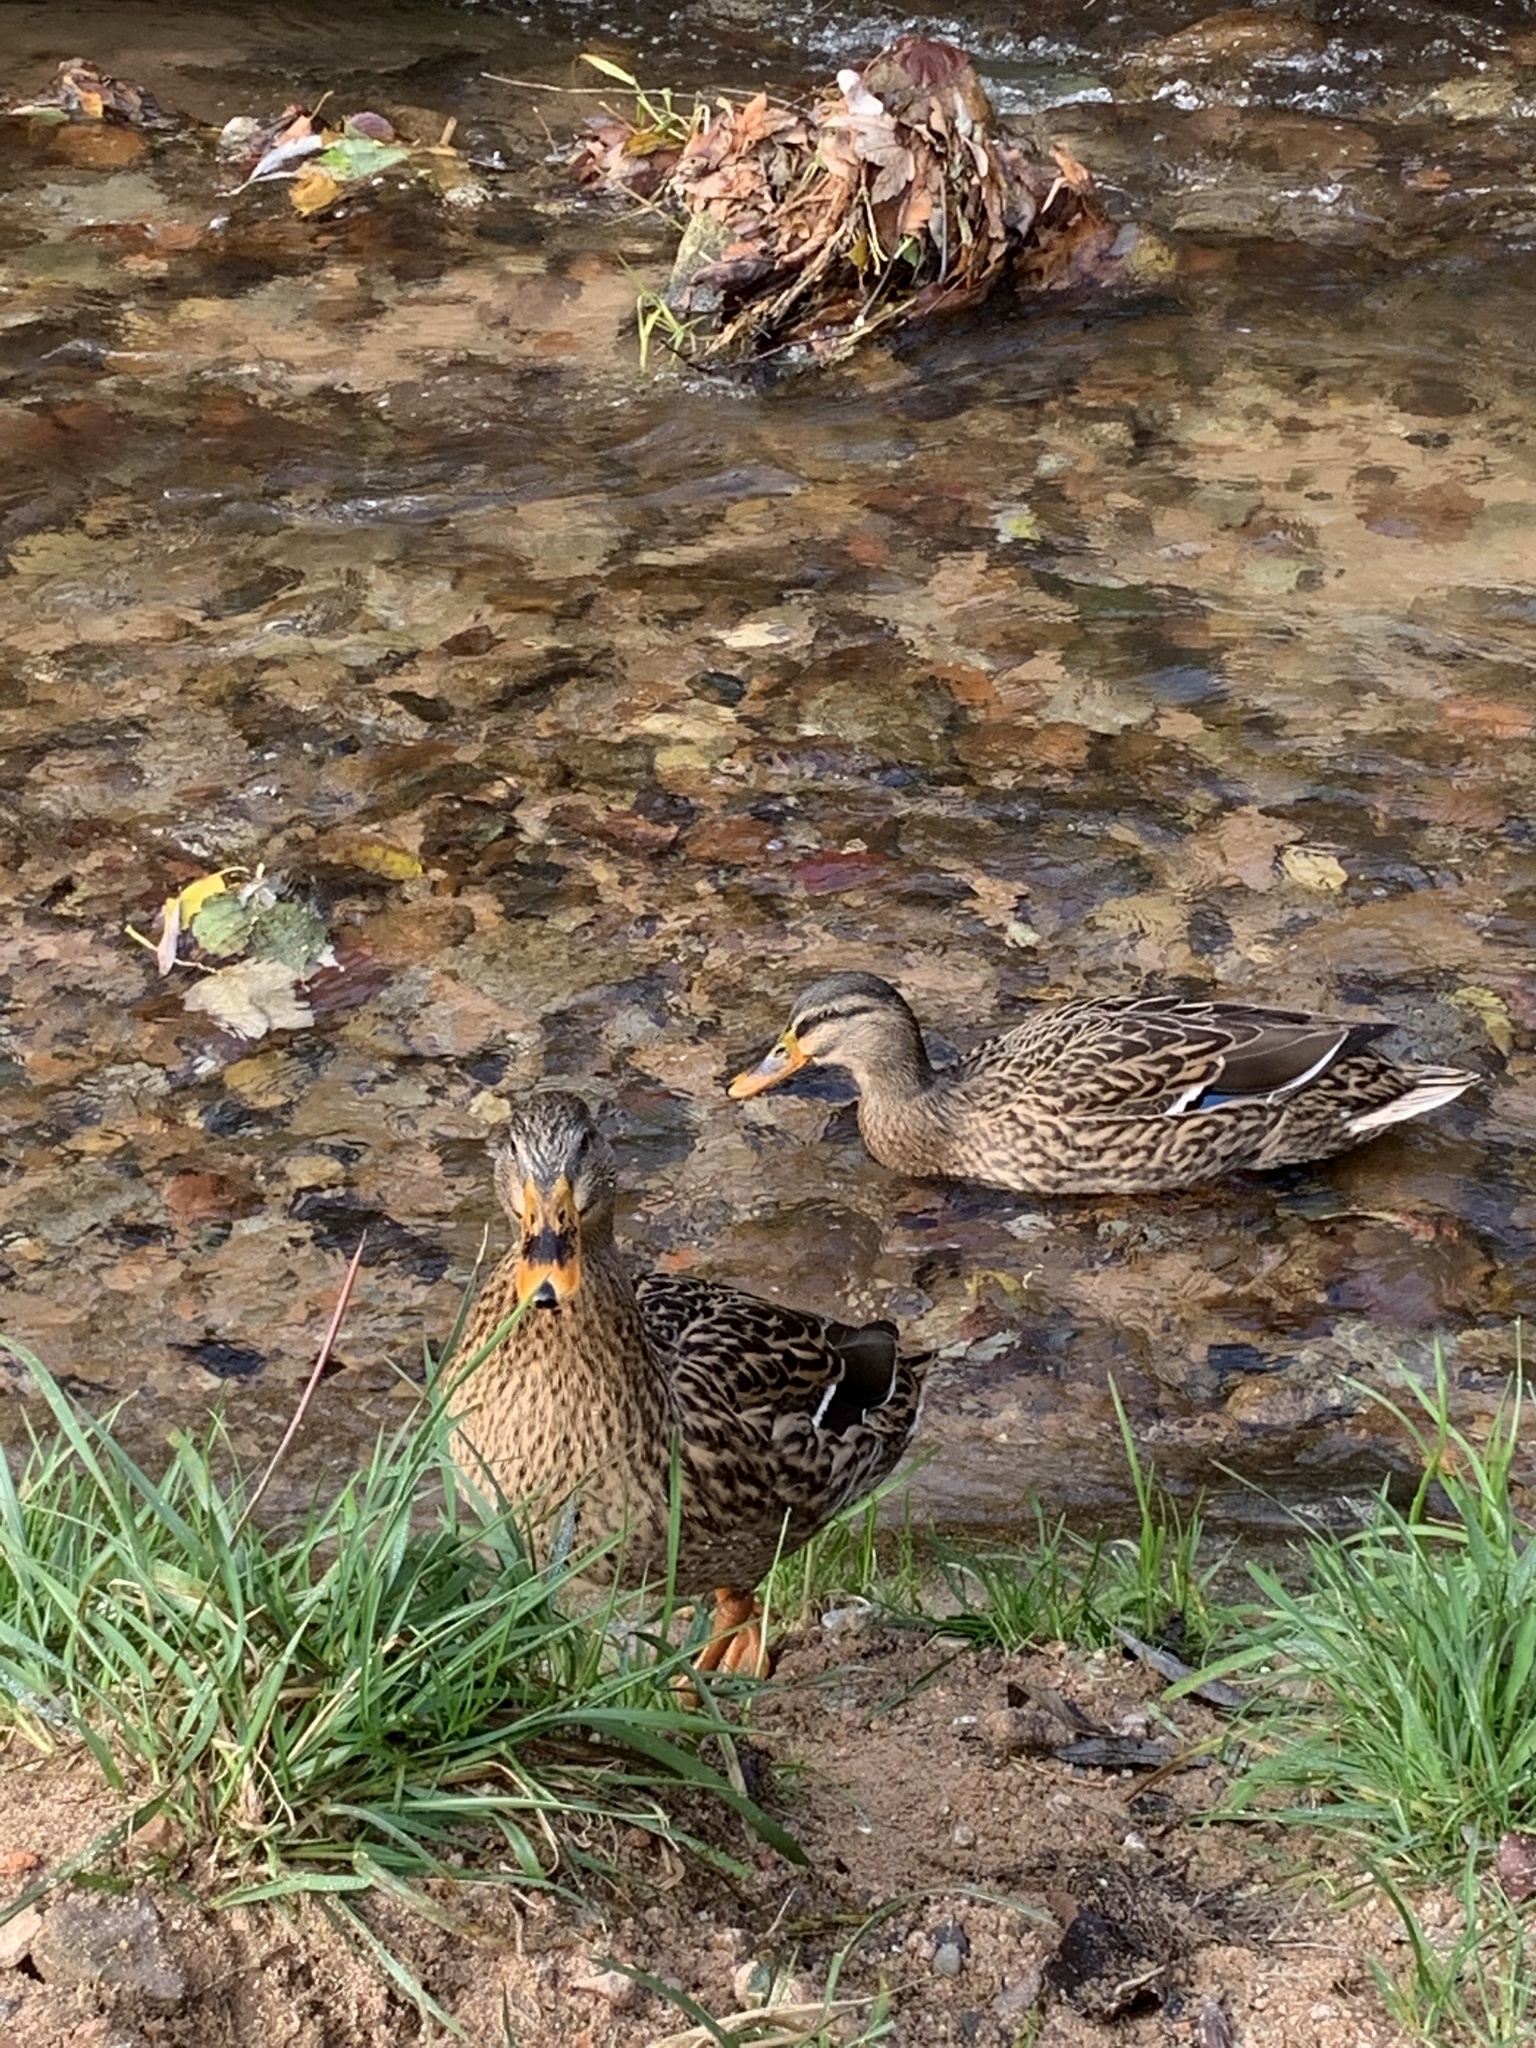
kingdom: Animalia
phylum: Chordata
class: Aves
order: Anseriformes
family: Anatidae
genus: Anas
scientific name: Anas platyrhynchos
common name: Mallard
